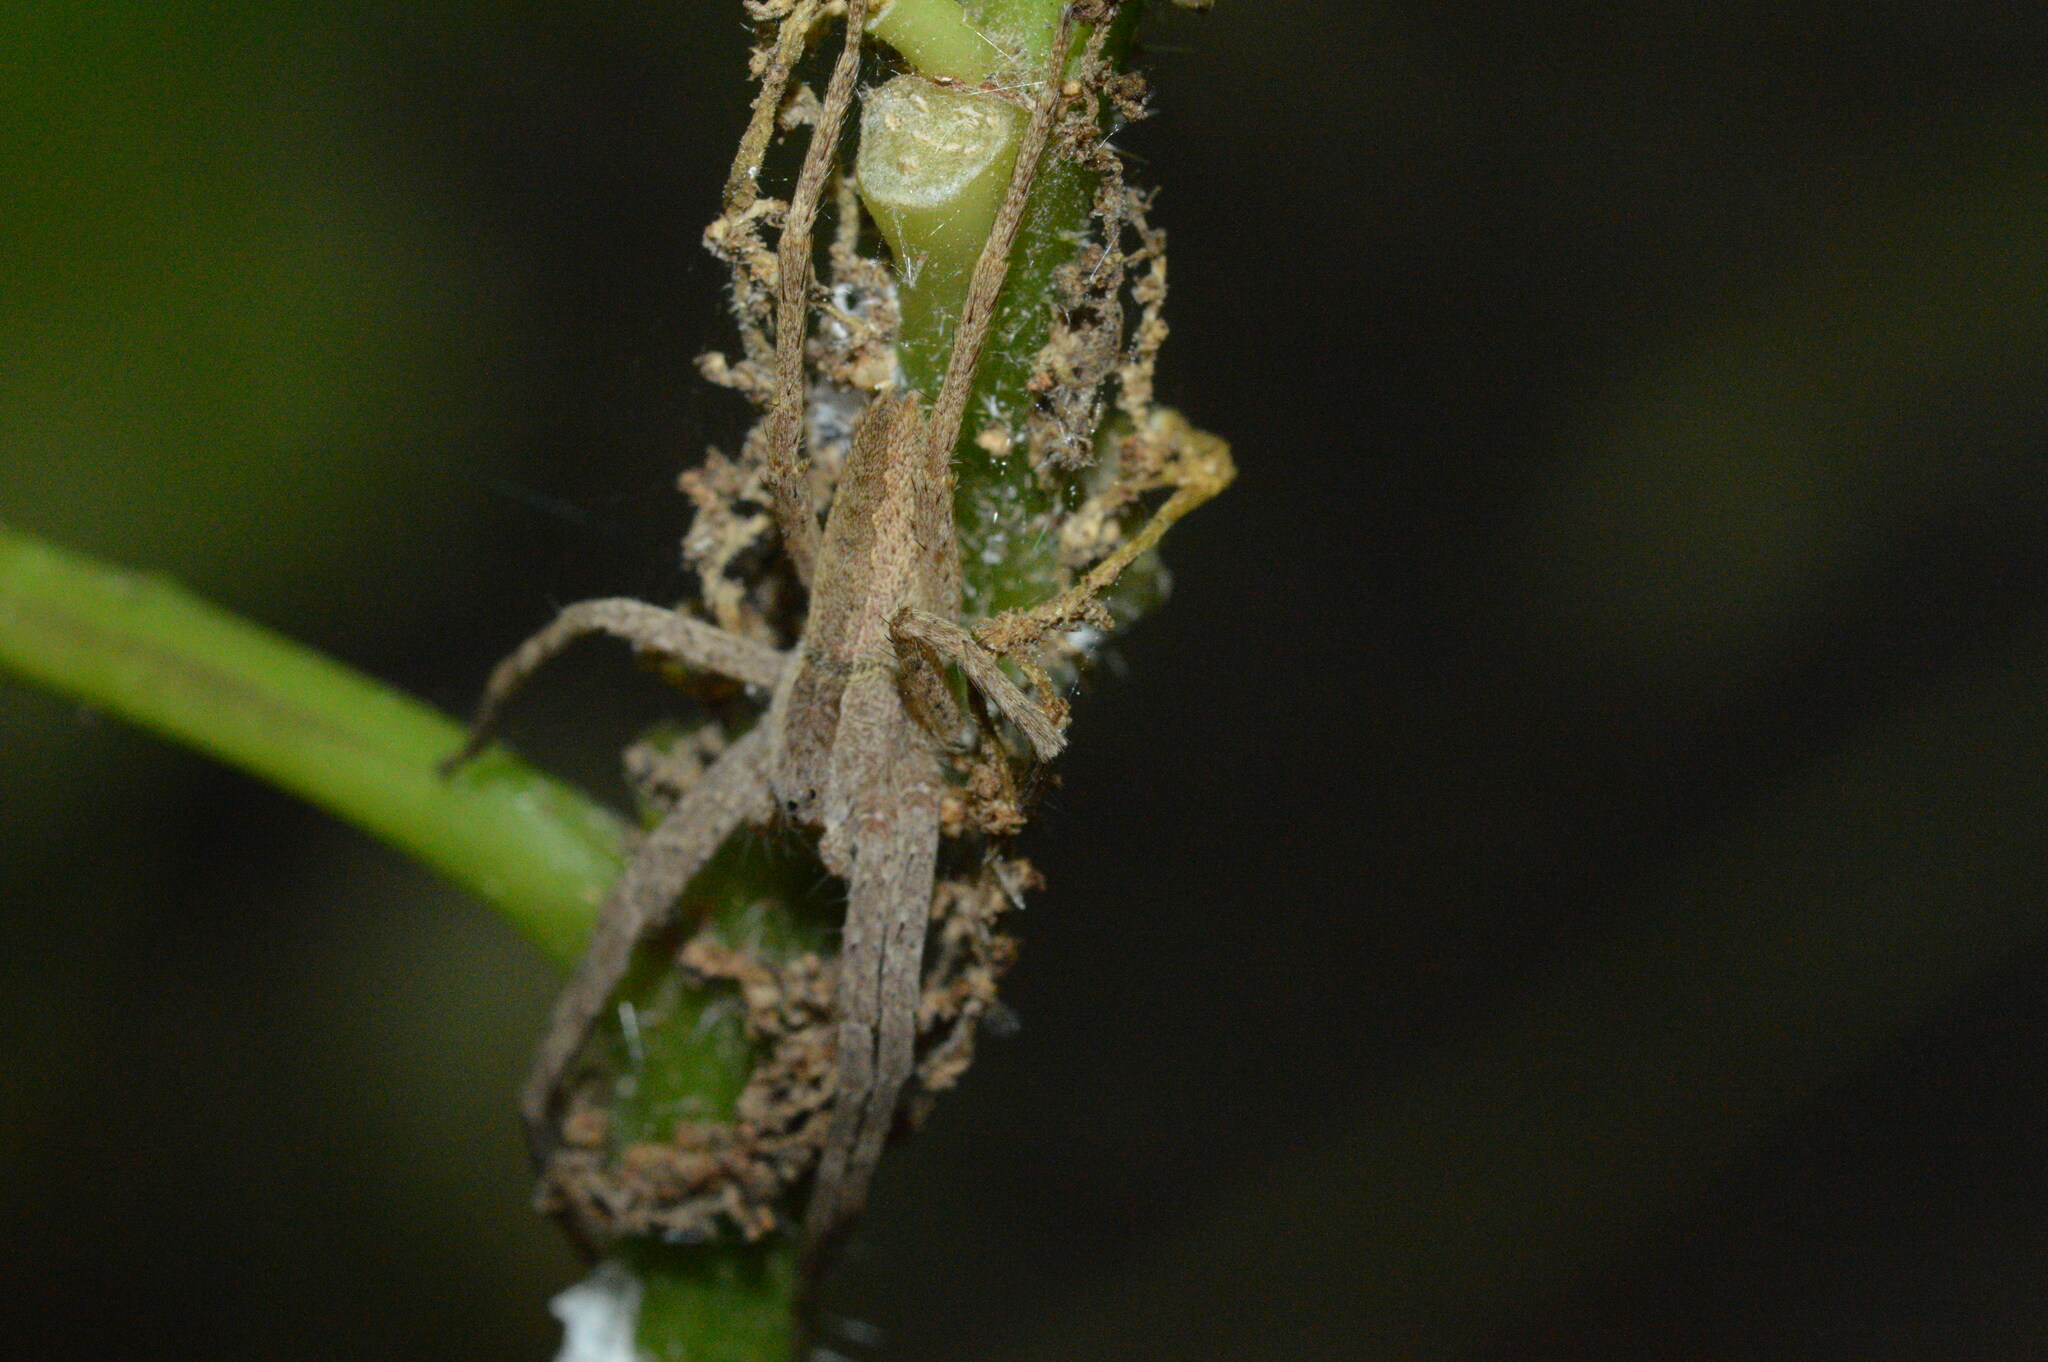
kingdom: Animalia
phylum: Arthropoda
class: Arachnida
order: Araneae
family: Pisauridae
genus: Pisaurina
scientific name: Pisaurina mira
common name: American nursery web spider
